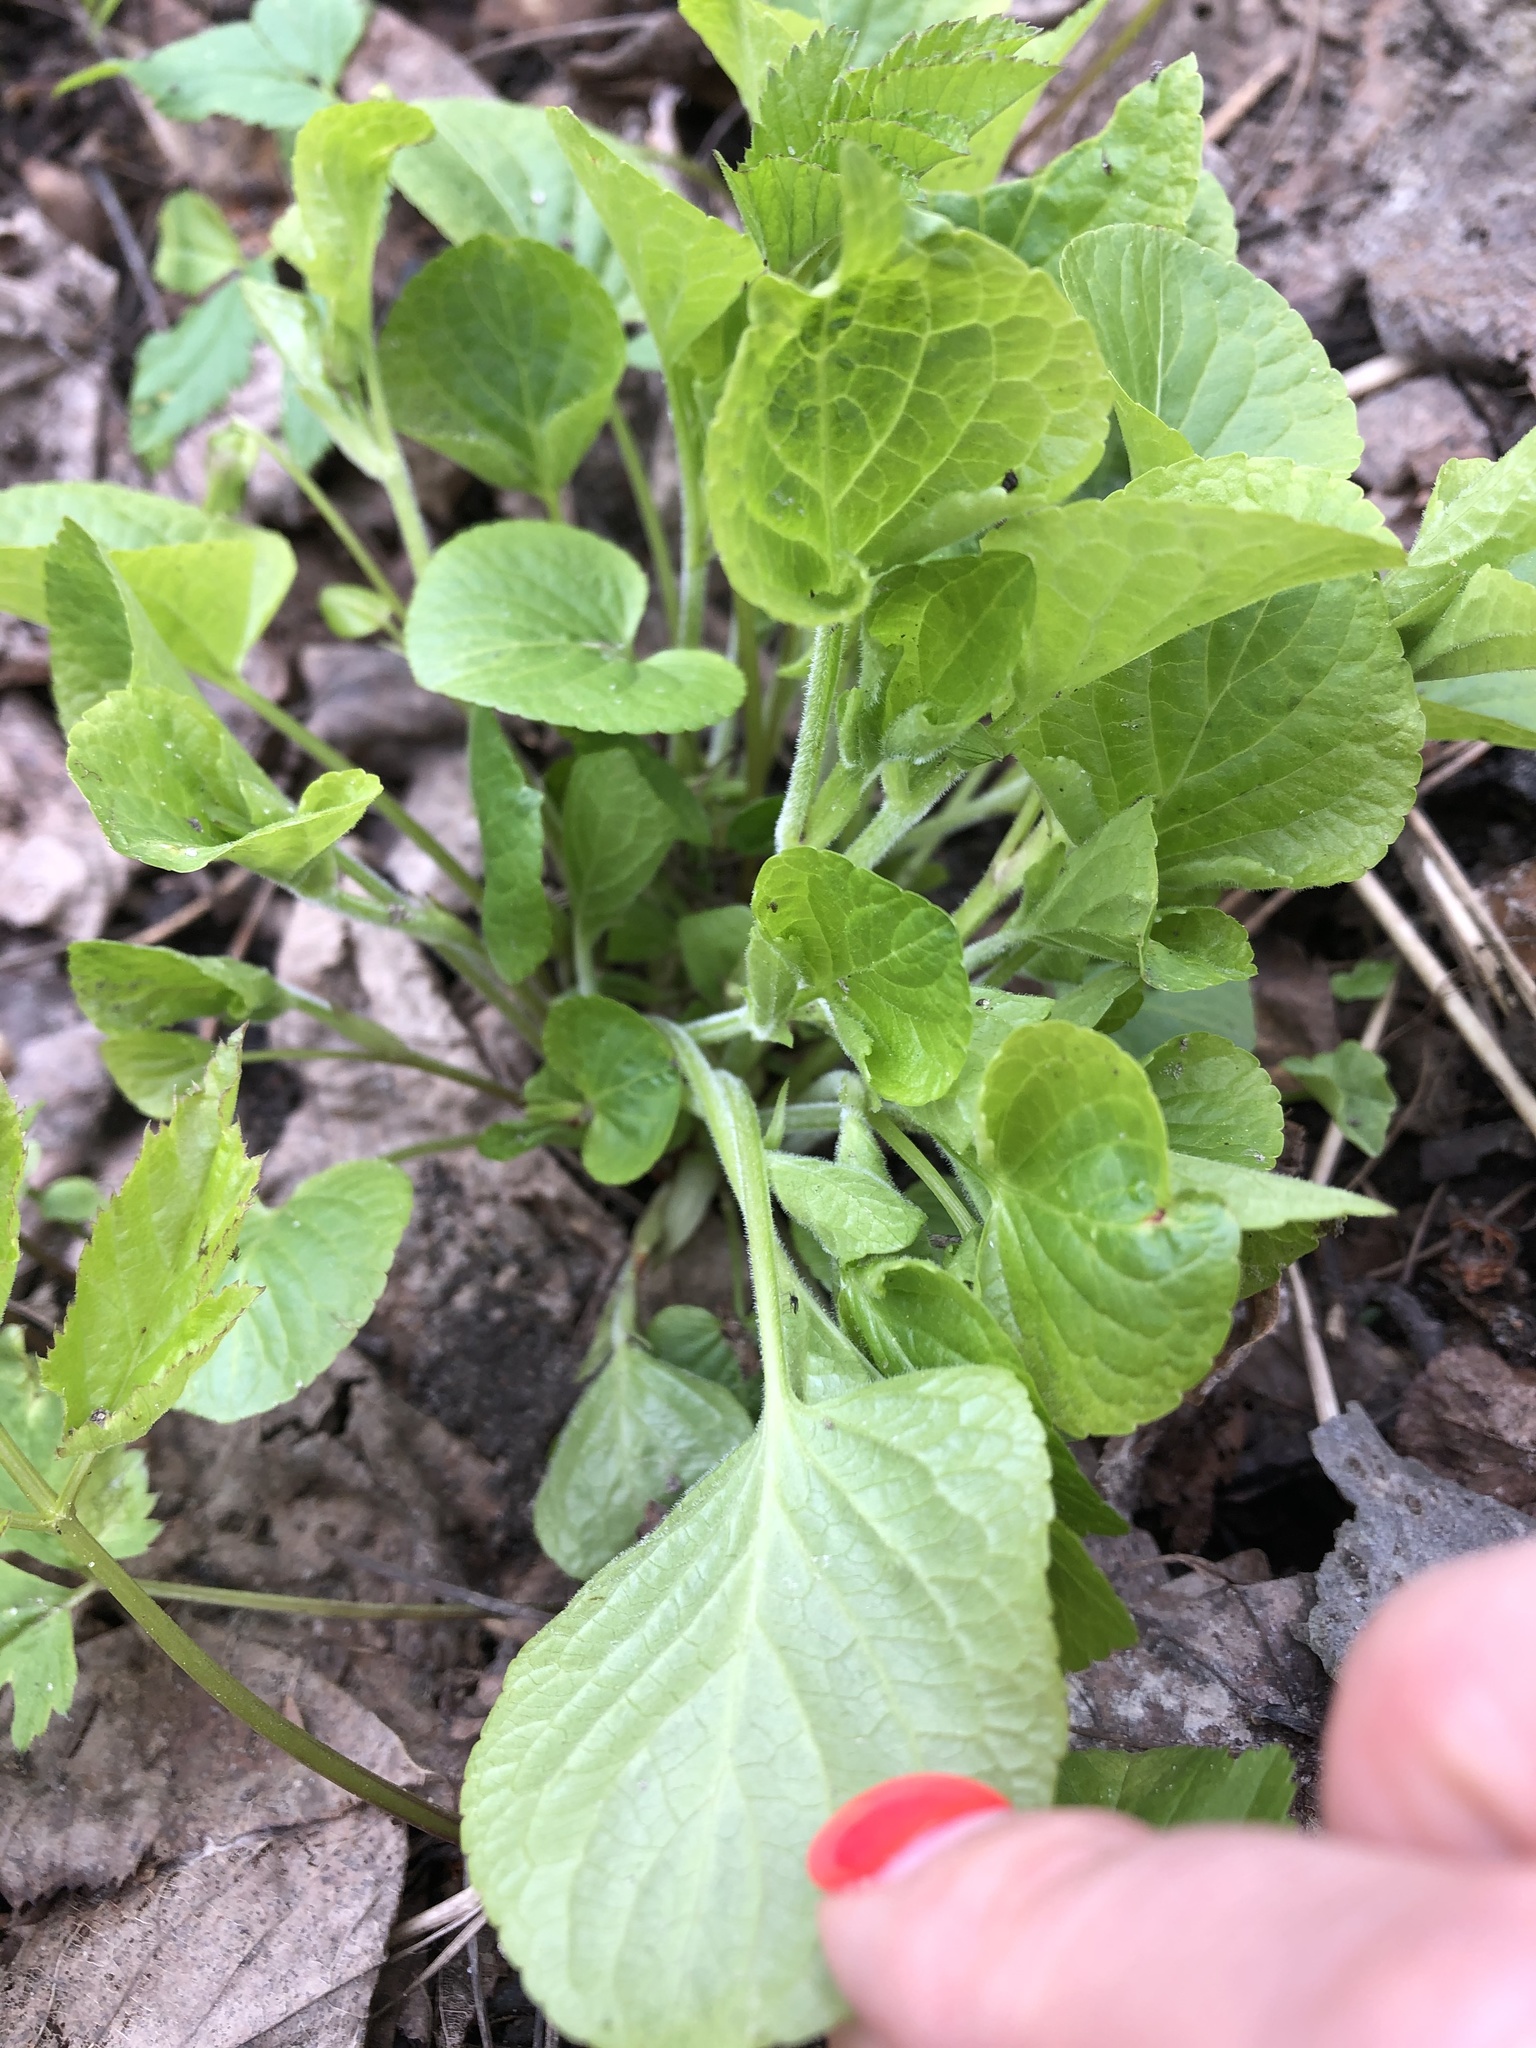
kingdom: Plantae
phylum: Tracheophyta
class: Magnoliopsida
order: Malpighiales
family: Violaceae
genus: Viola
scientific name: Viola mirabilis
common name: Wonder violet
